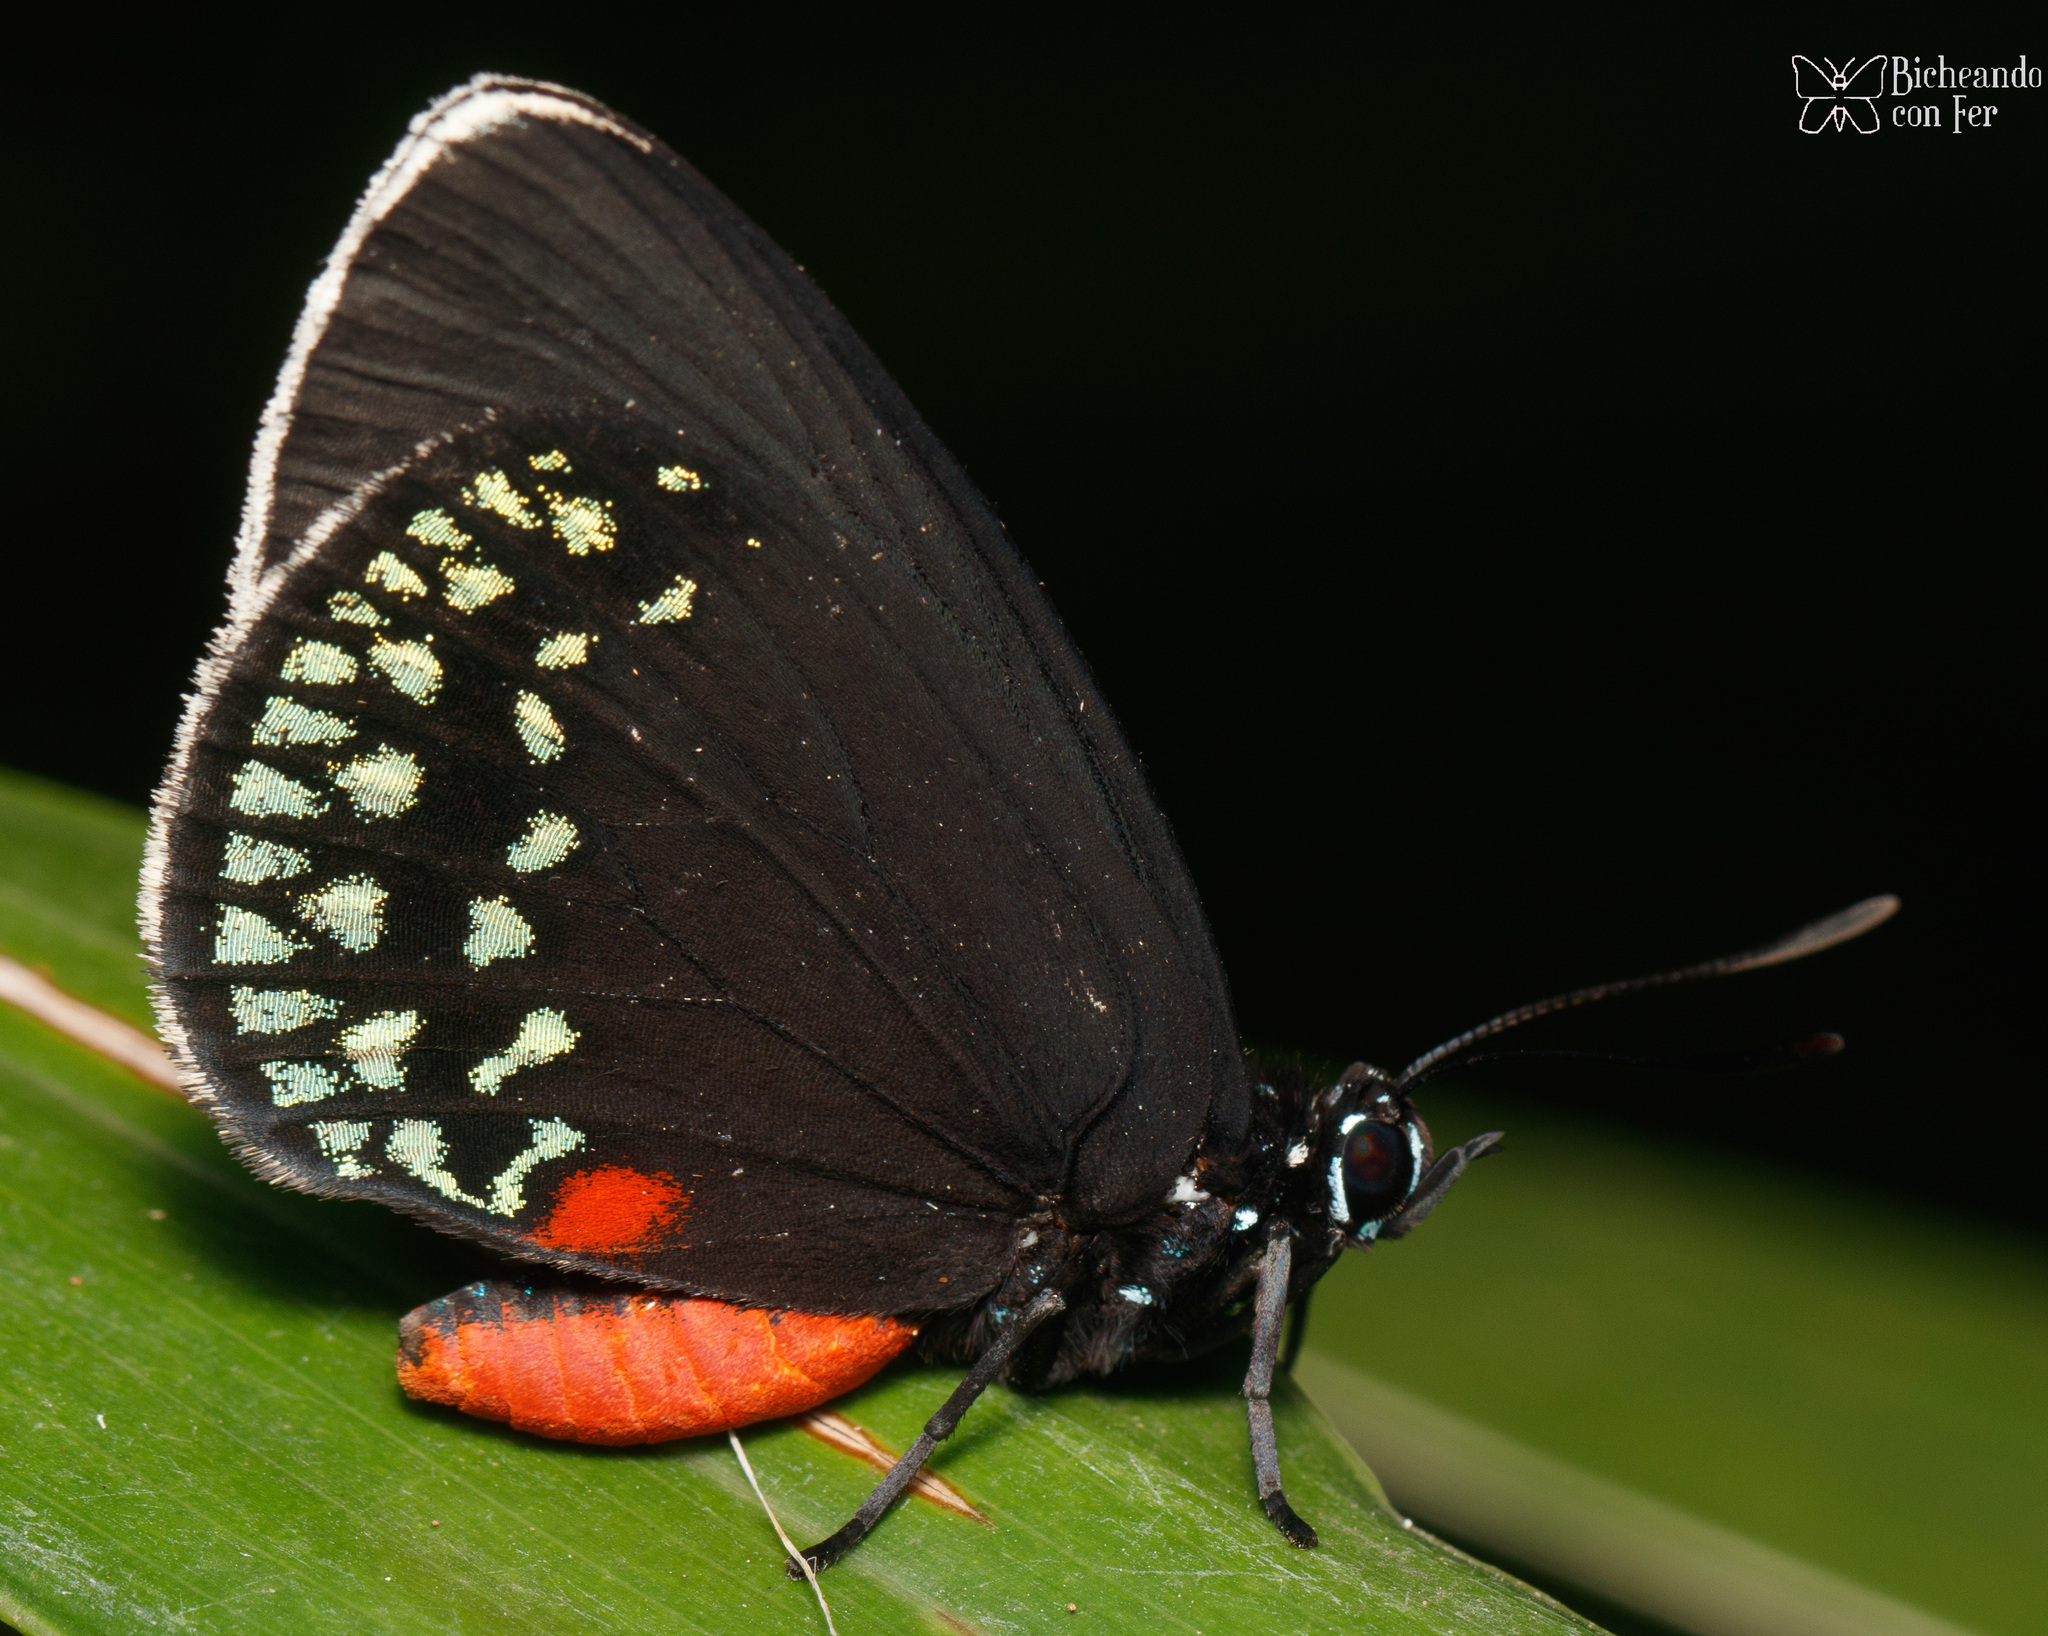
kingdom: Animalia
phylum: Arthropoda
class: Insecta
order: Lepidoptera
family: Lycaenidae
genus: Eumaeus
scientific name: Eumaeus toxea
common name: Mexican cycadian
